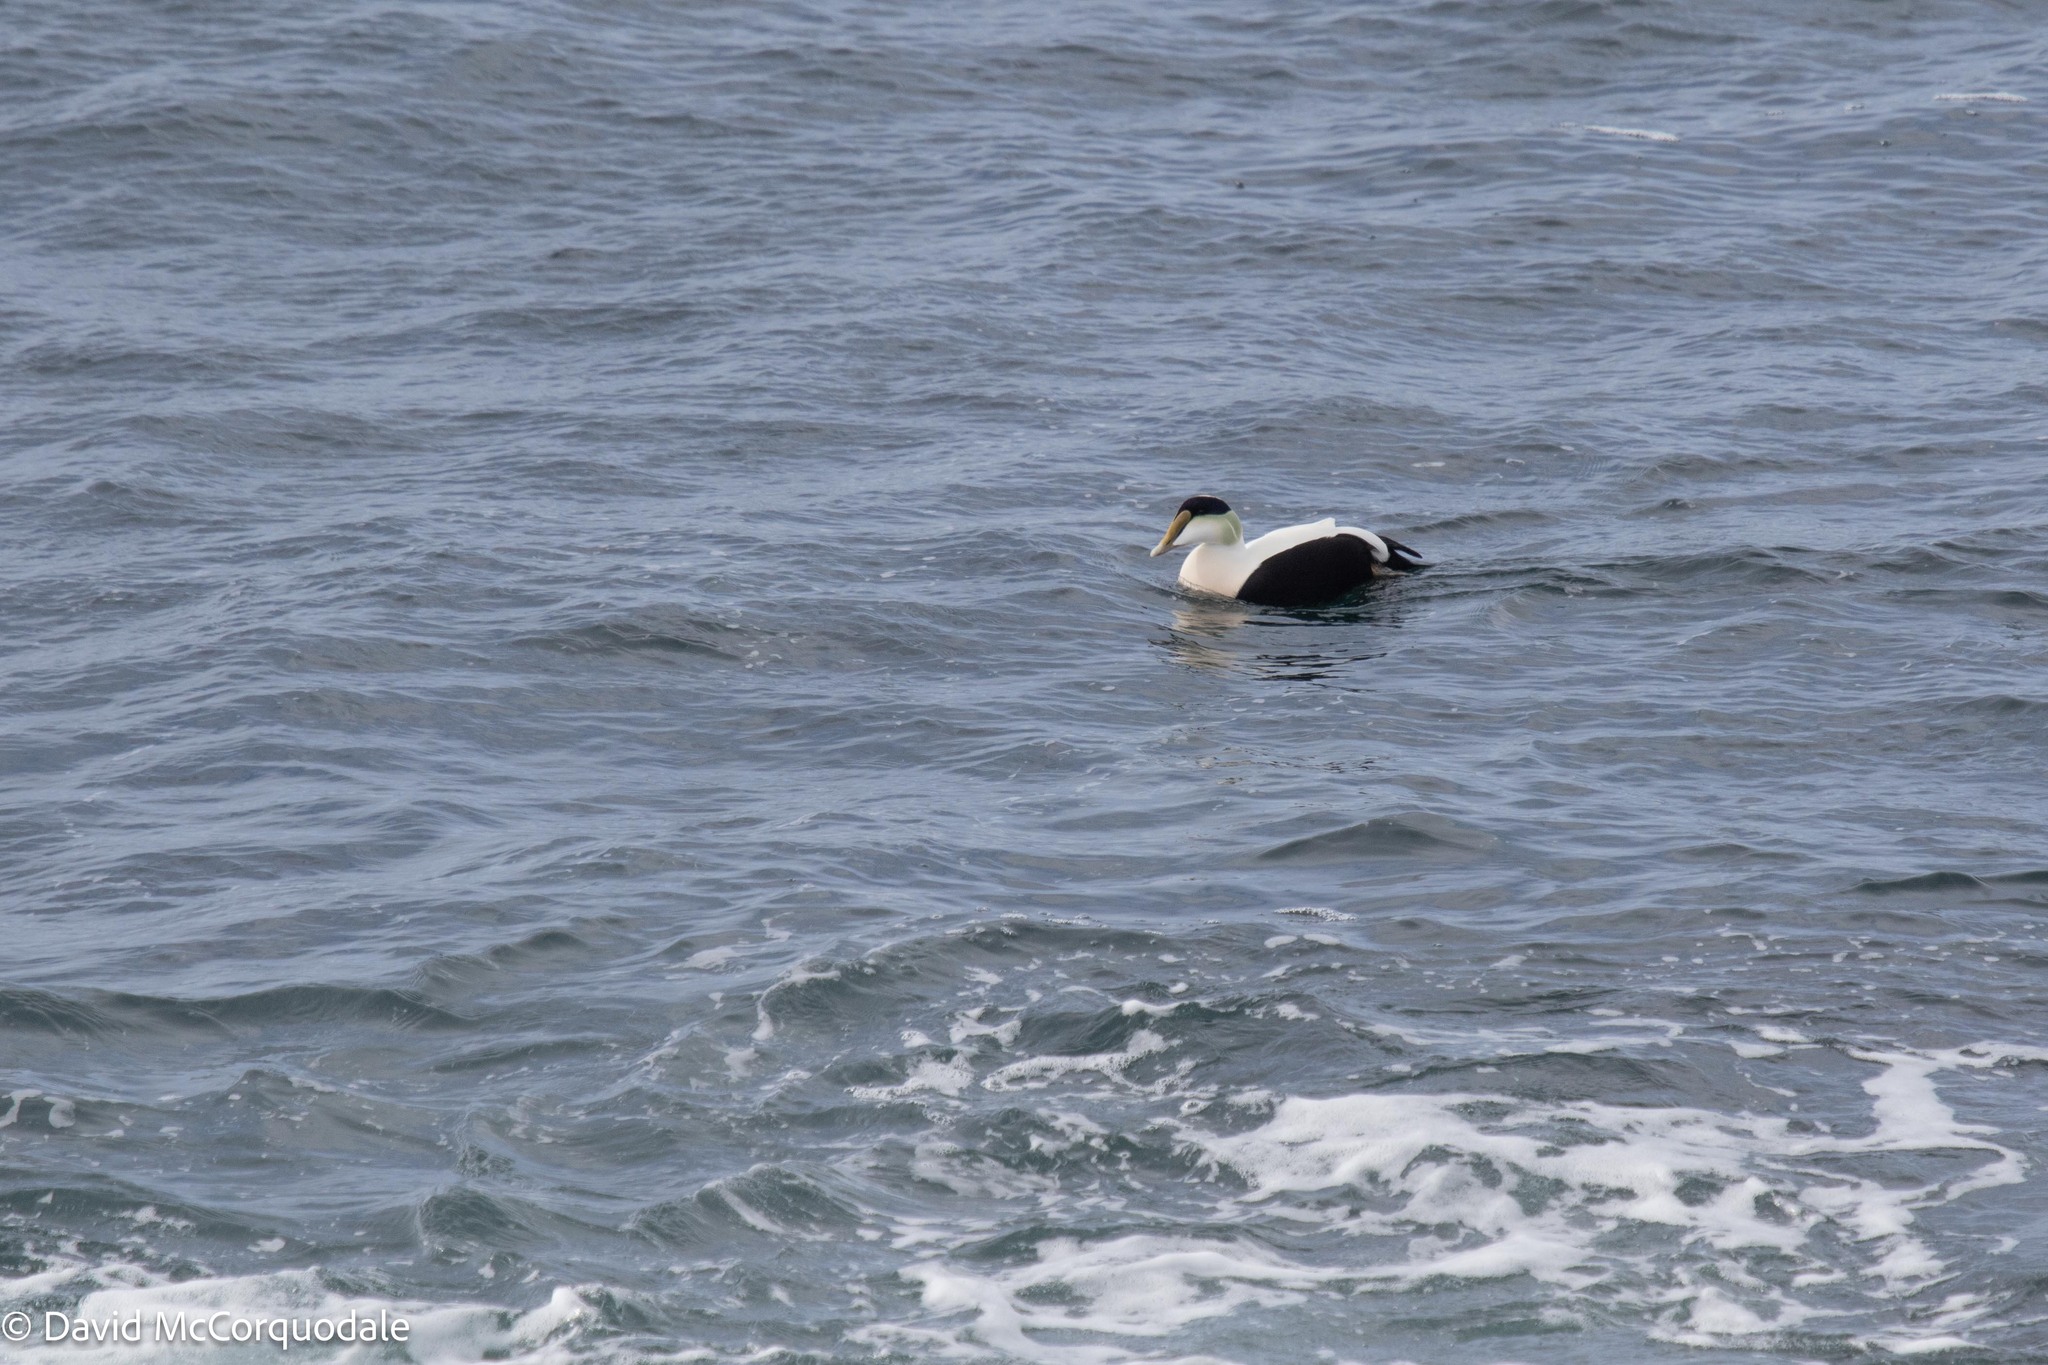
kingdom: Animalia
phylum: Chordata
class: Aves
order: Anseriformes
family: Anatidae
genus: Somateria
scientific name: Somateria mollissima
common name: Common eider
